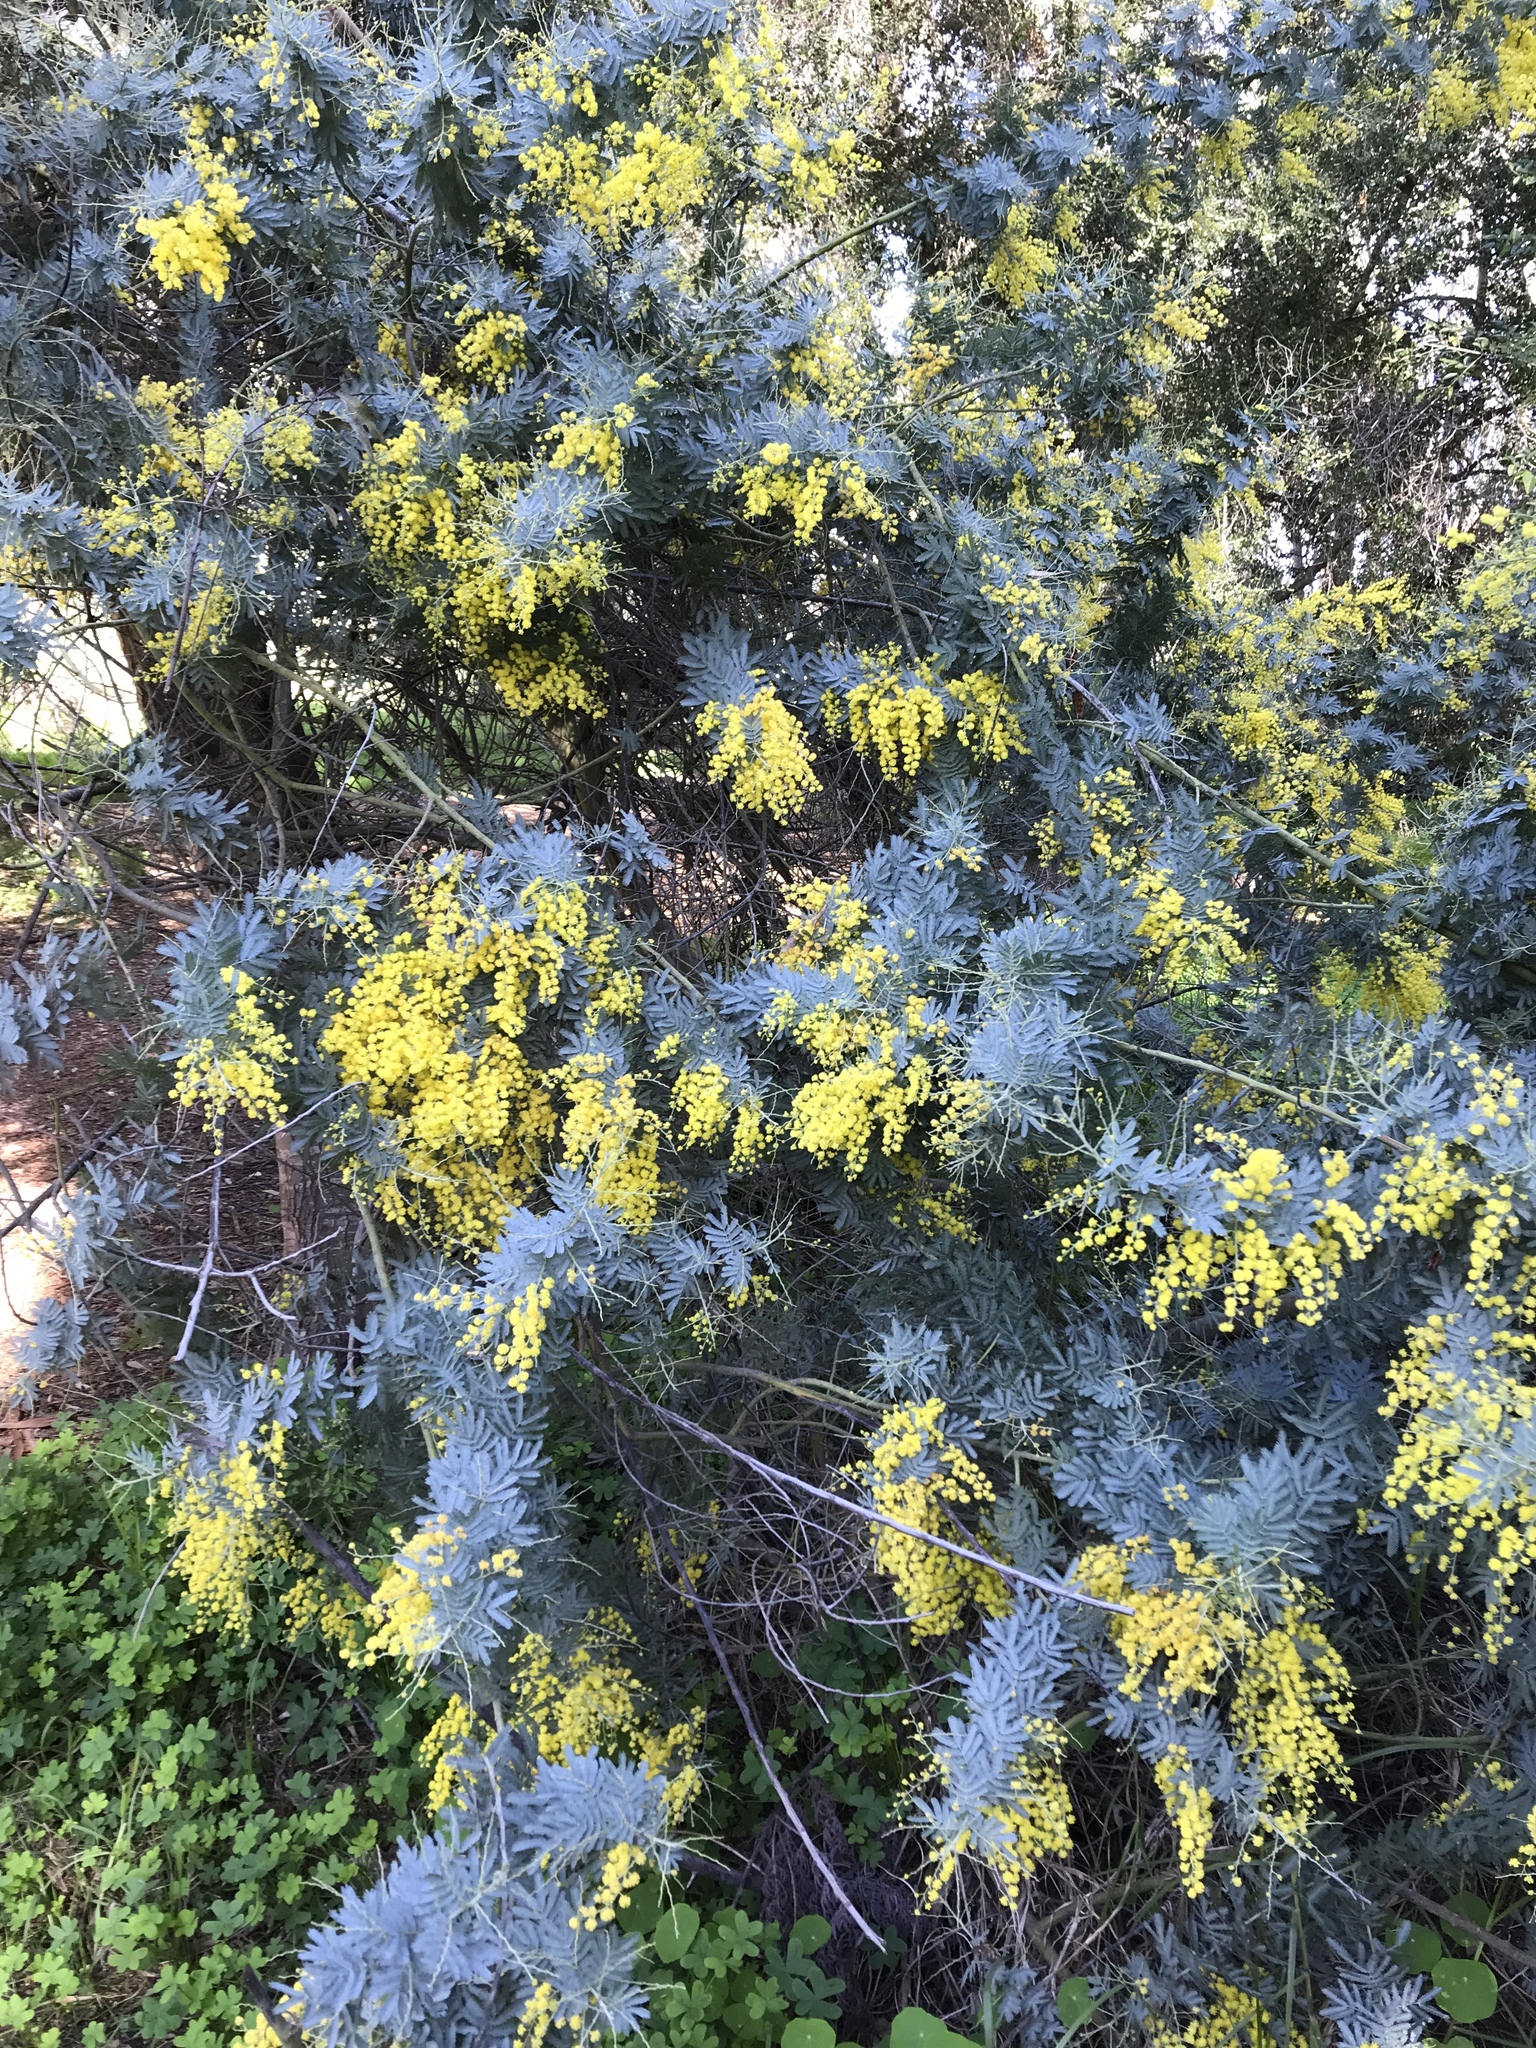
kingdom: Plantae
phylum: Tracheophyta
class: Magnoliopsida
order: Fabales
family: Fabaceae
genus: Acacia
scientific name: Acacia baileyana
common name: Cootamundra wattle
